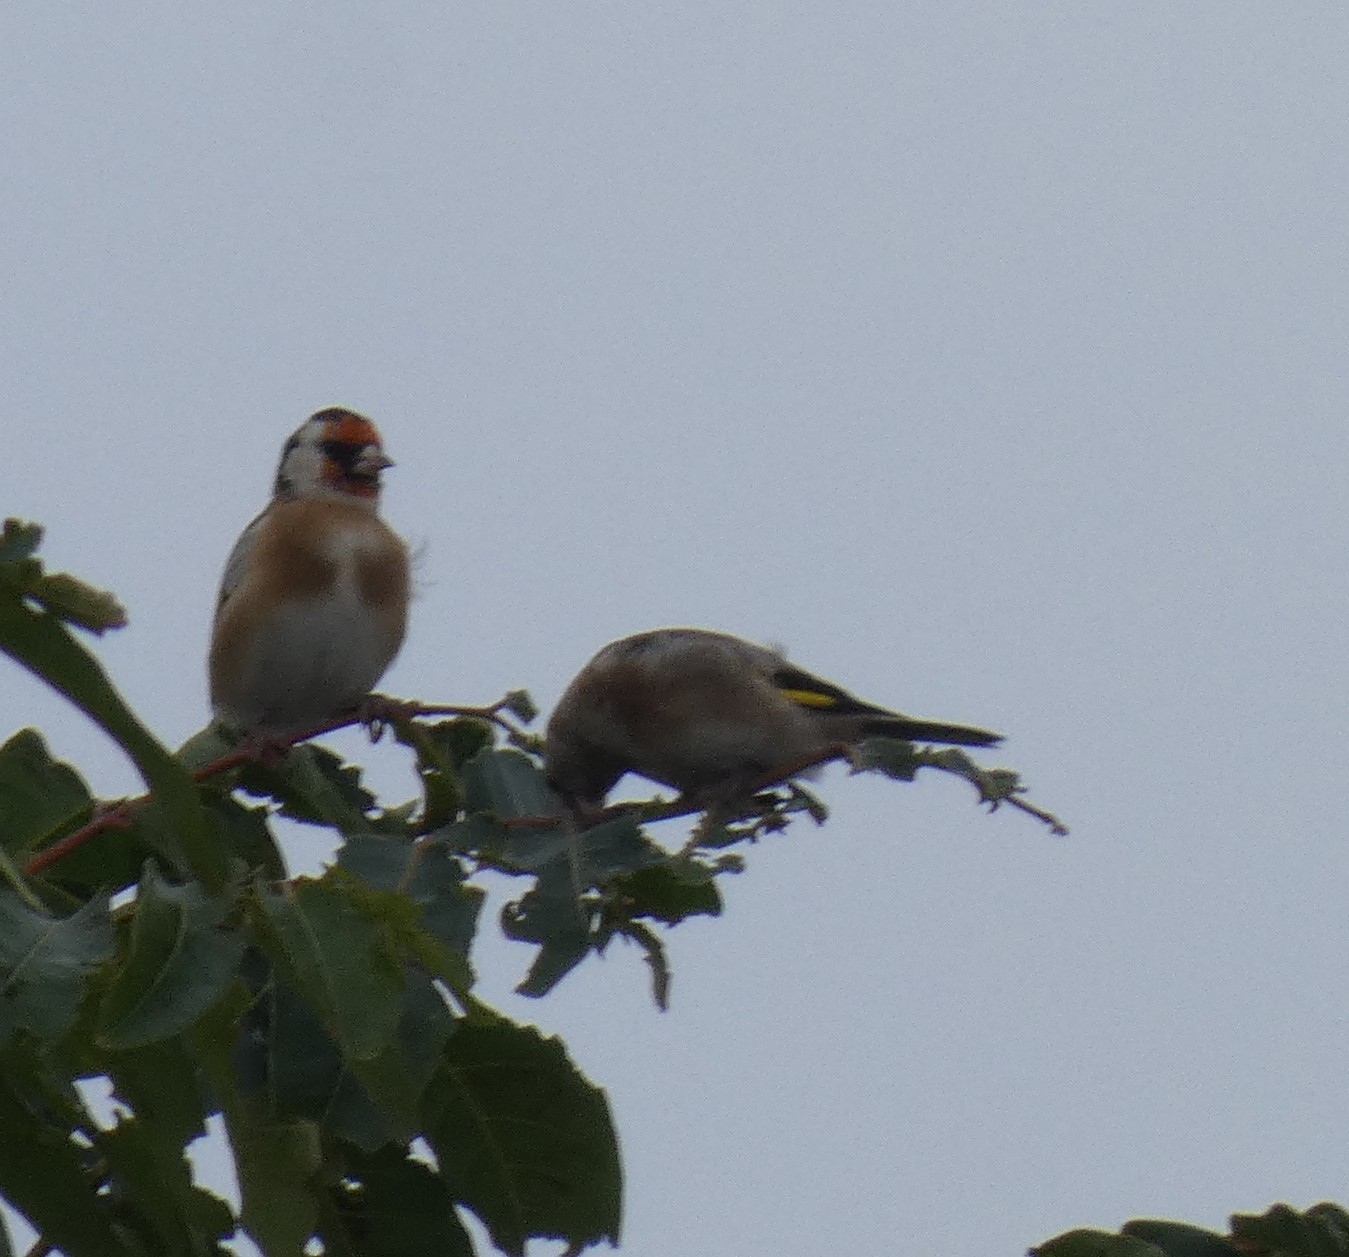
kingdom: Animalia
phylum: Chordata
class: Aves
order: Passeriformes
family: Fringillidae
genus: Carduelis
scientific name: Carduelis carduelis
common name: European goldfinch
